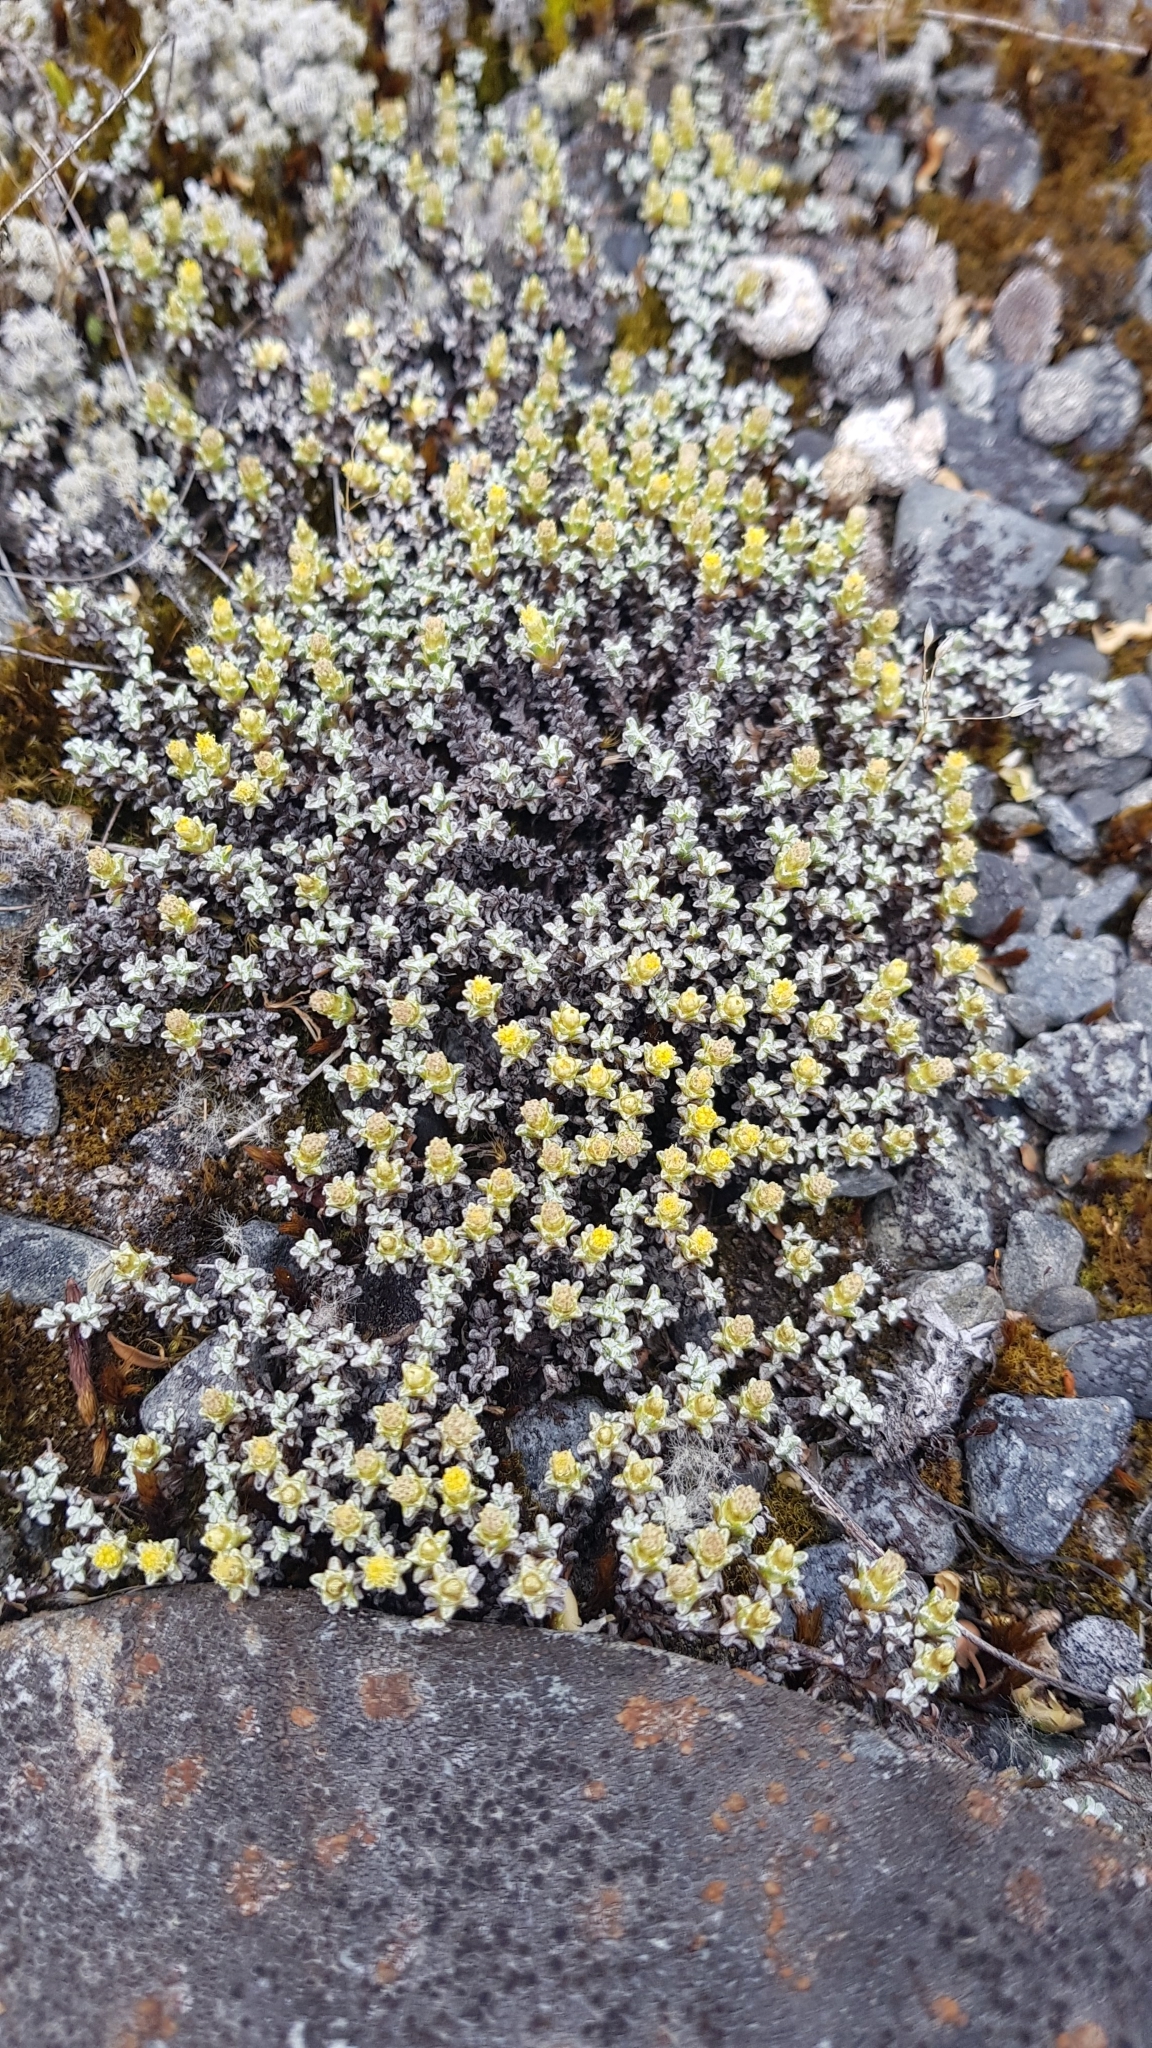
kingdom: Plantae
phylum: Tracheophyta
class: Magnoliopsida
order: Asterales
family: Asteraceae
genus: Raoulia
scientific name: Raoulia hookeri
